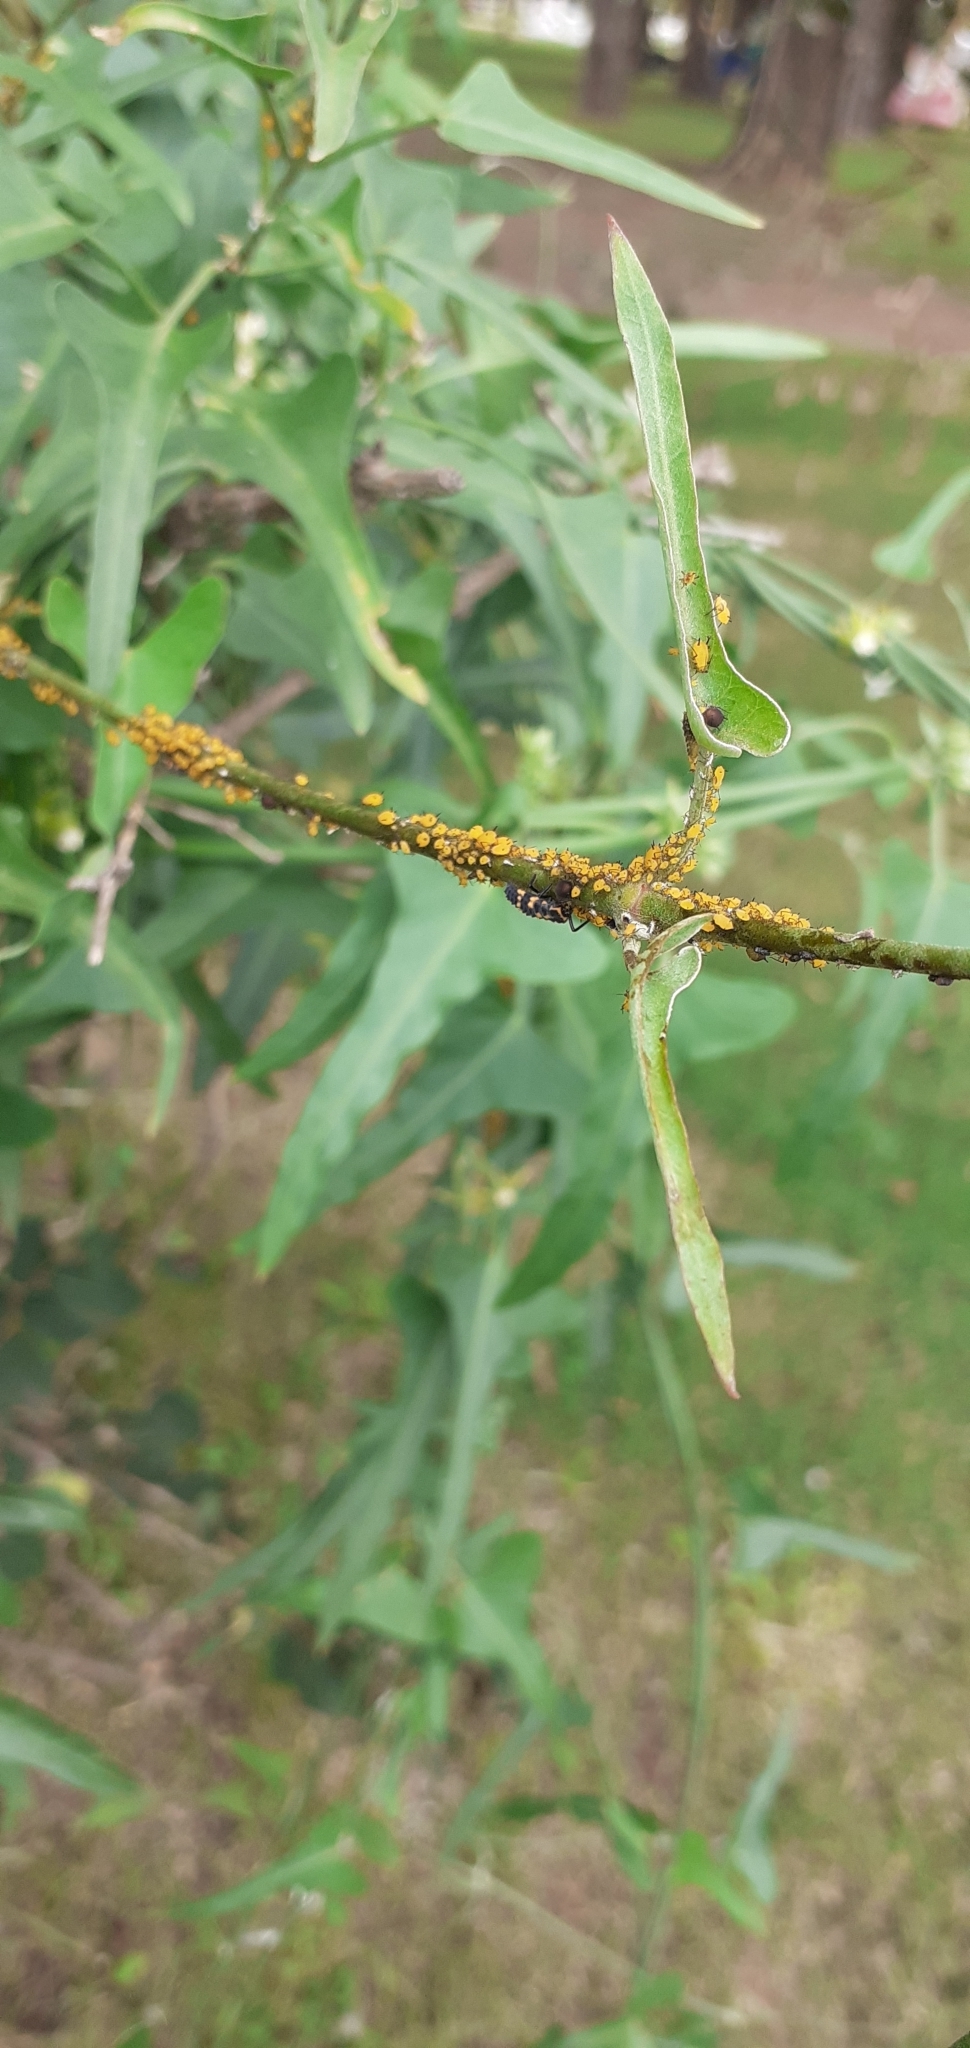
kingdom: Animalia
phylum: Arthropoda
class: Insecta
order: Hemiptera
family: Aphididae
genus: Aphis
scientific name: Aphis nerii
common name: Oleander aphid
